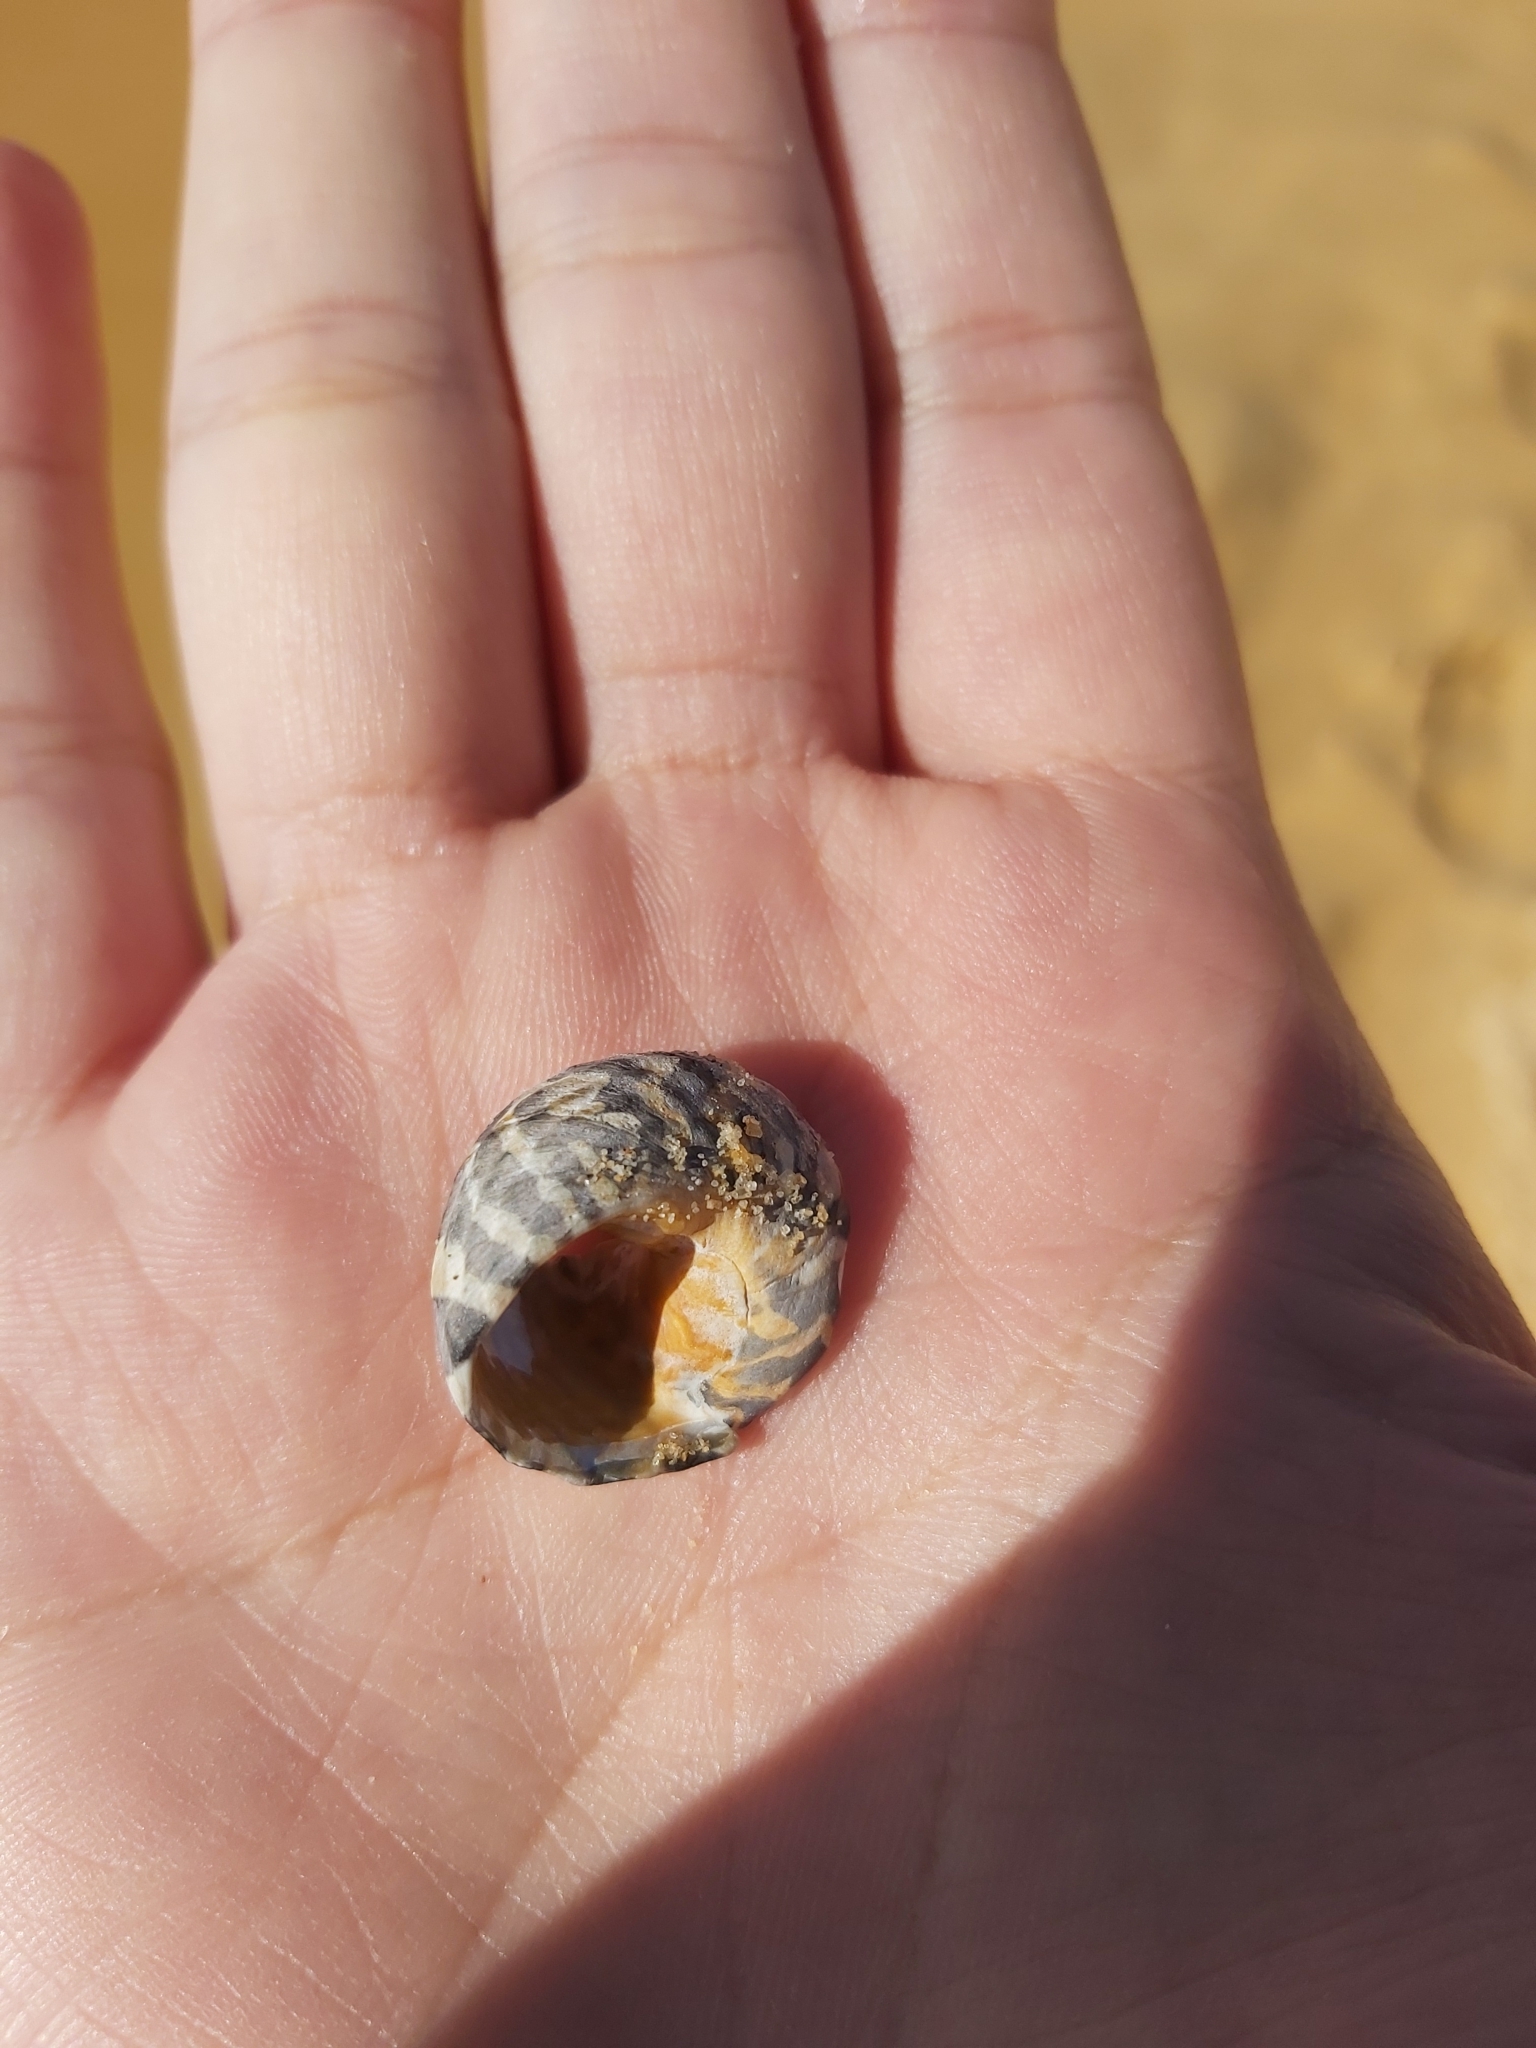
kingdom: Animalia
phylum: Mollusca
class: Gastropoda
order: Trochida
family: Trochidae
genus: Austrocochlea
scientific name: Austrocochlea porcata
